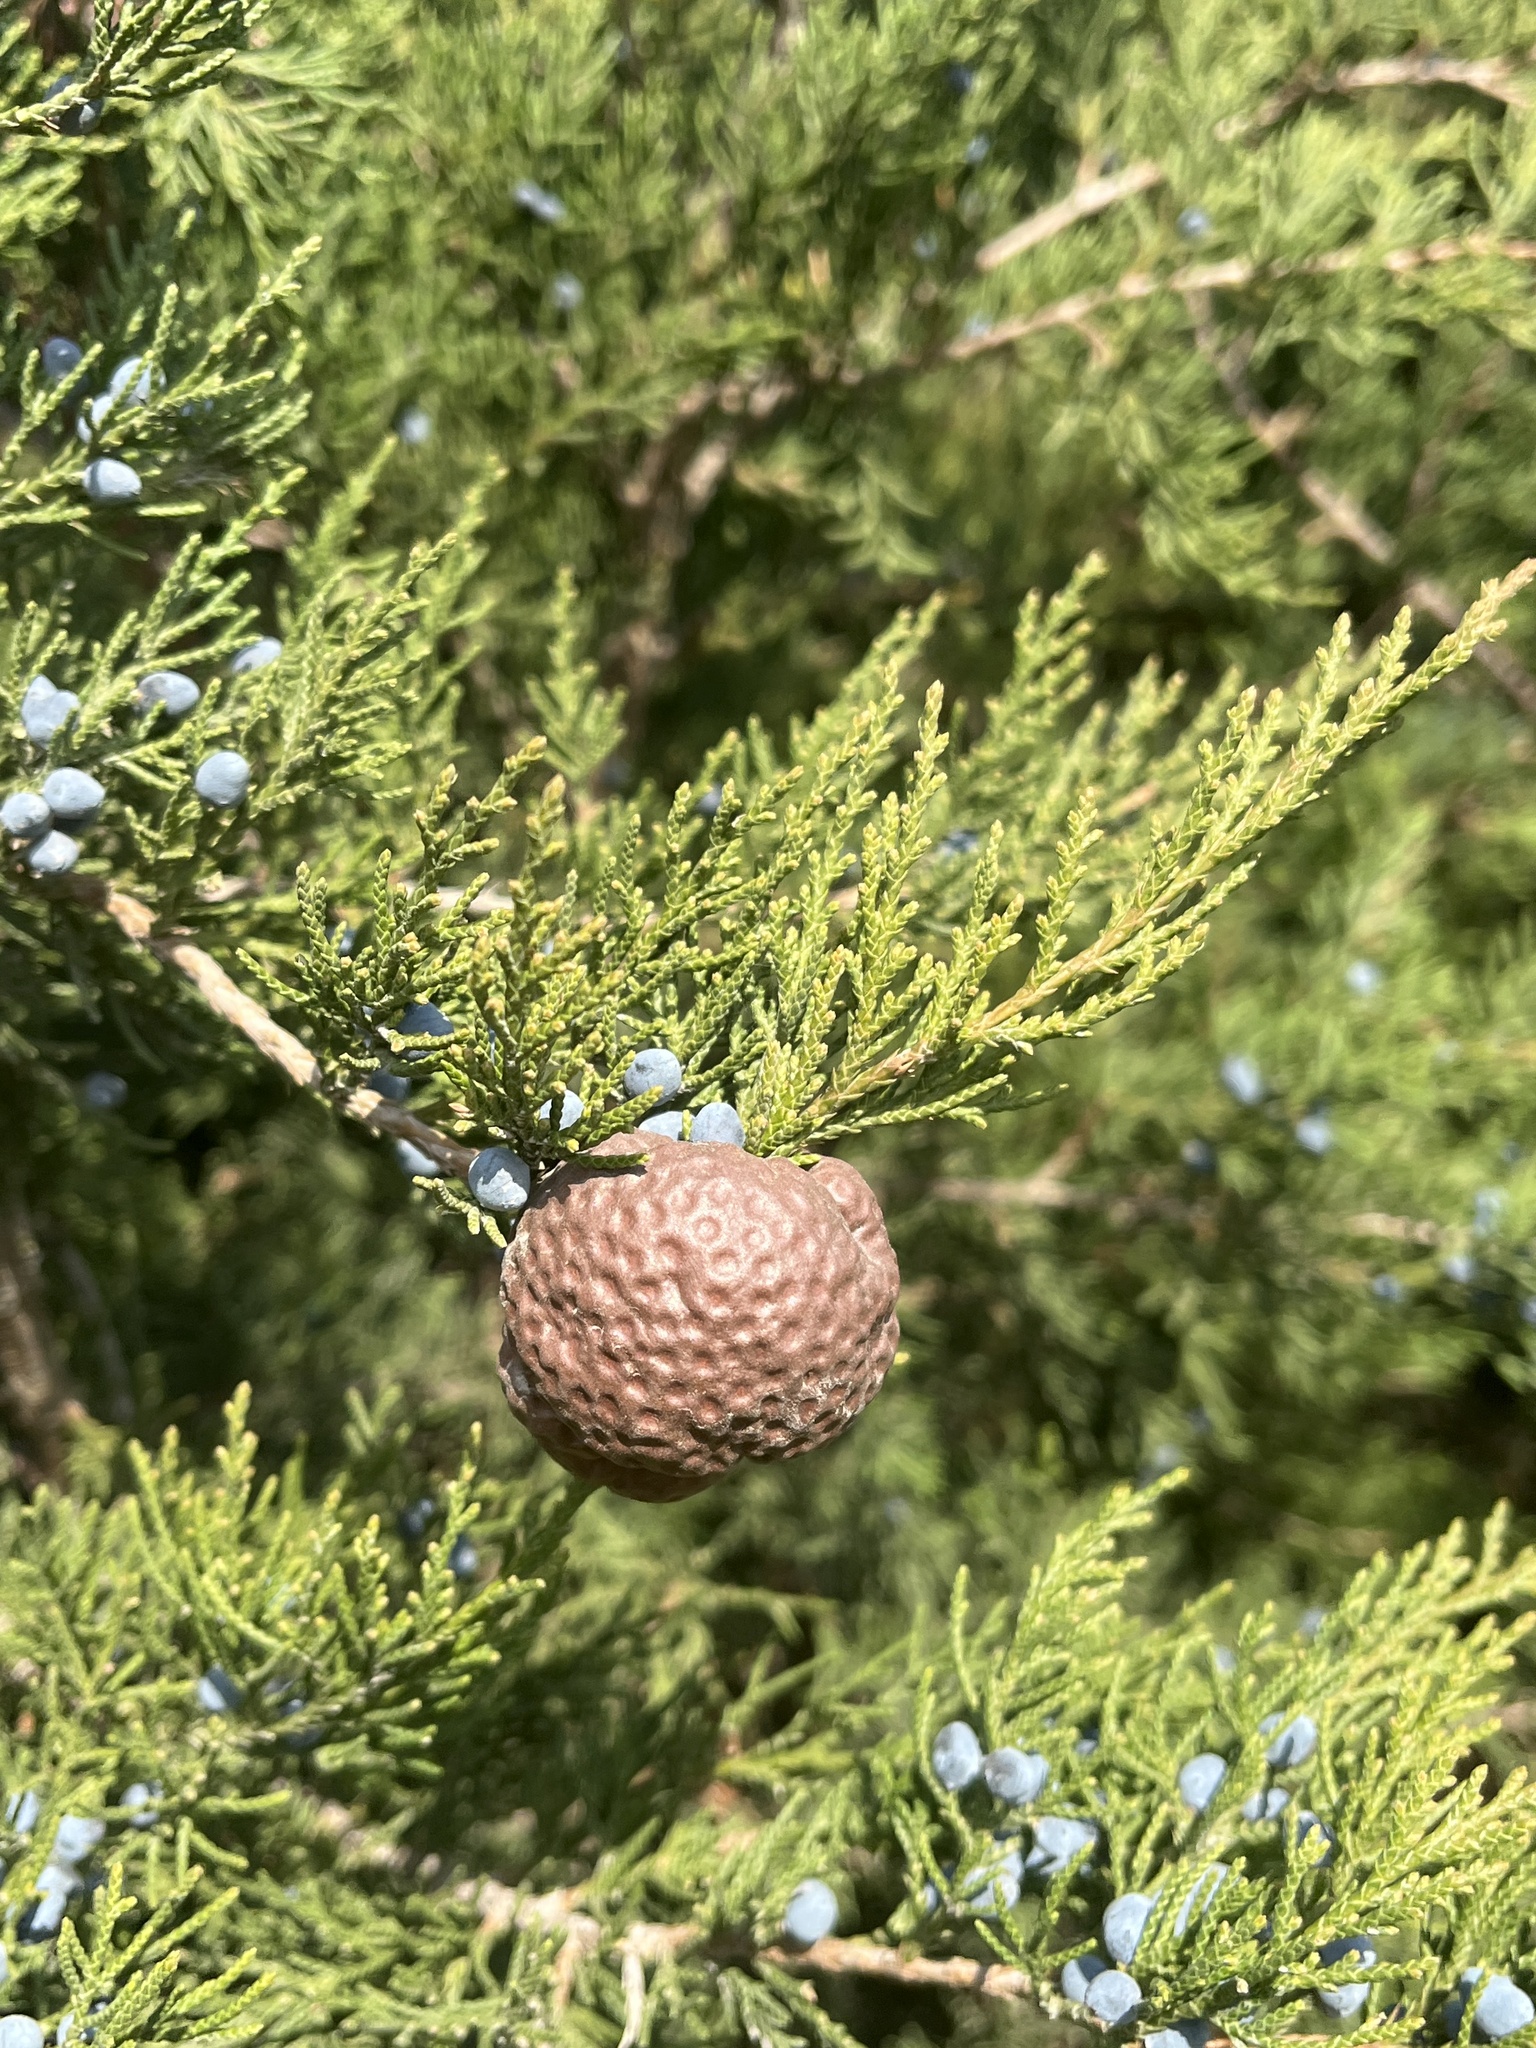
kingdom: Fungi
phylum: Basidiomycota
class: Pucciniomycetes
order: Pucciniales
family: Gymnosporangiaceae
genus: Gymnosporangium
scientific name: Gymnosporangium juniperi-virginianae
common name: Juniper-apple rust
